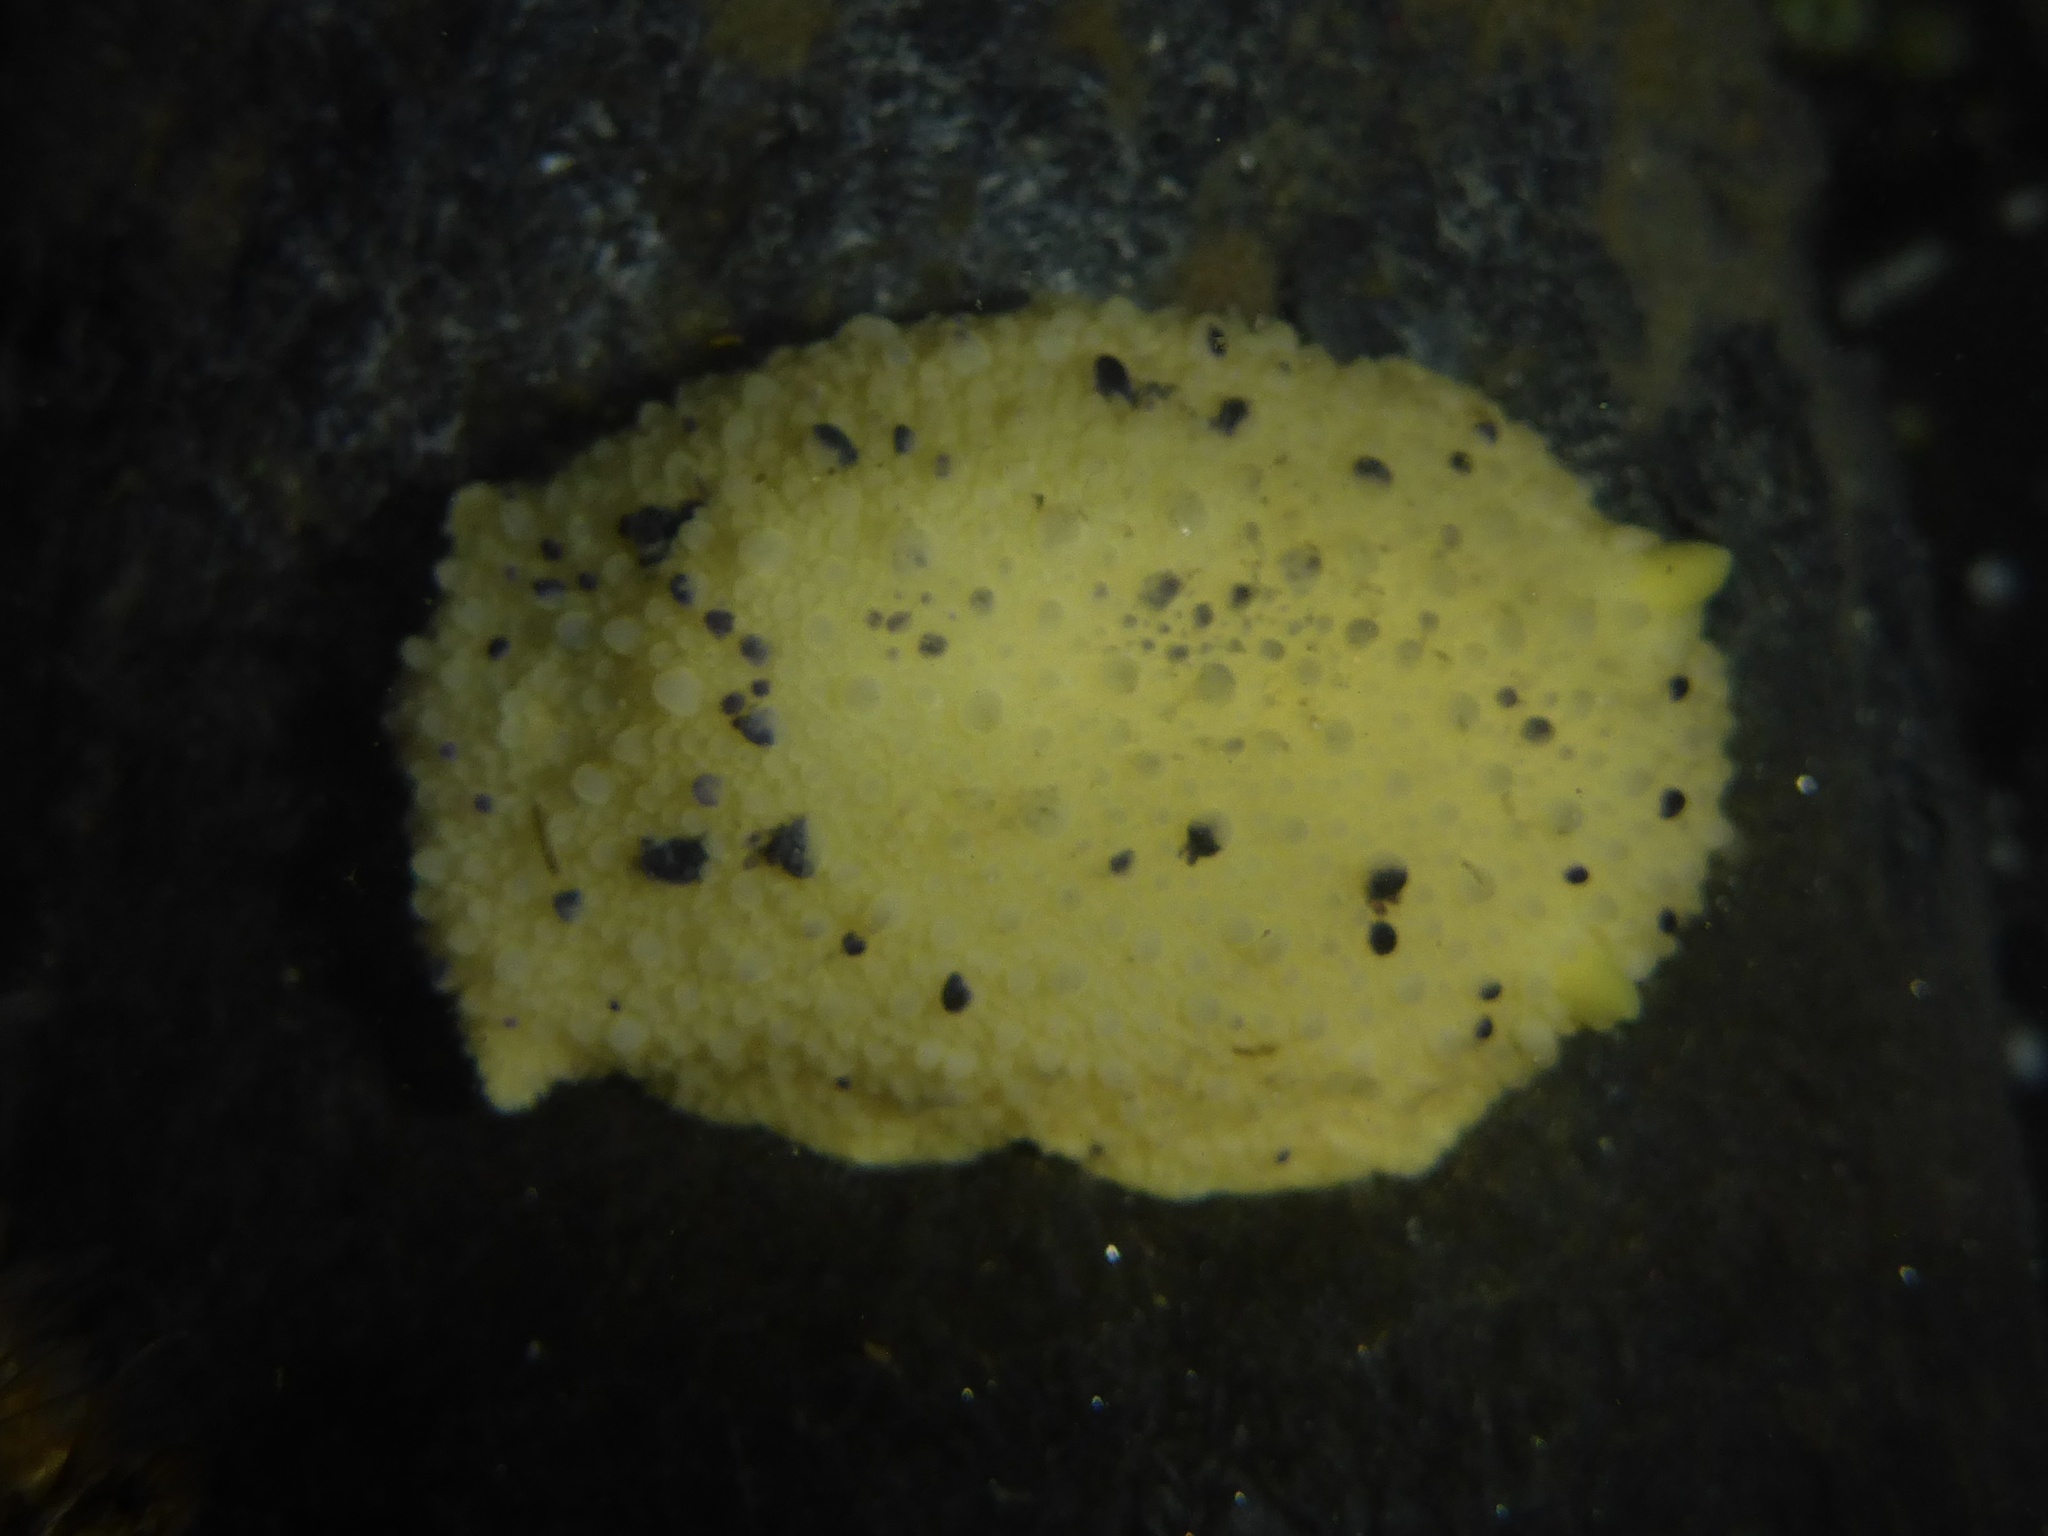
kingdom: Animalia
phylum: Mollusca
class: Gastropoda
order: Nudibranchia
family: Dorididae
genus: Doris
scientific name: Doris montereyensis
